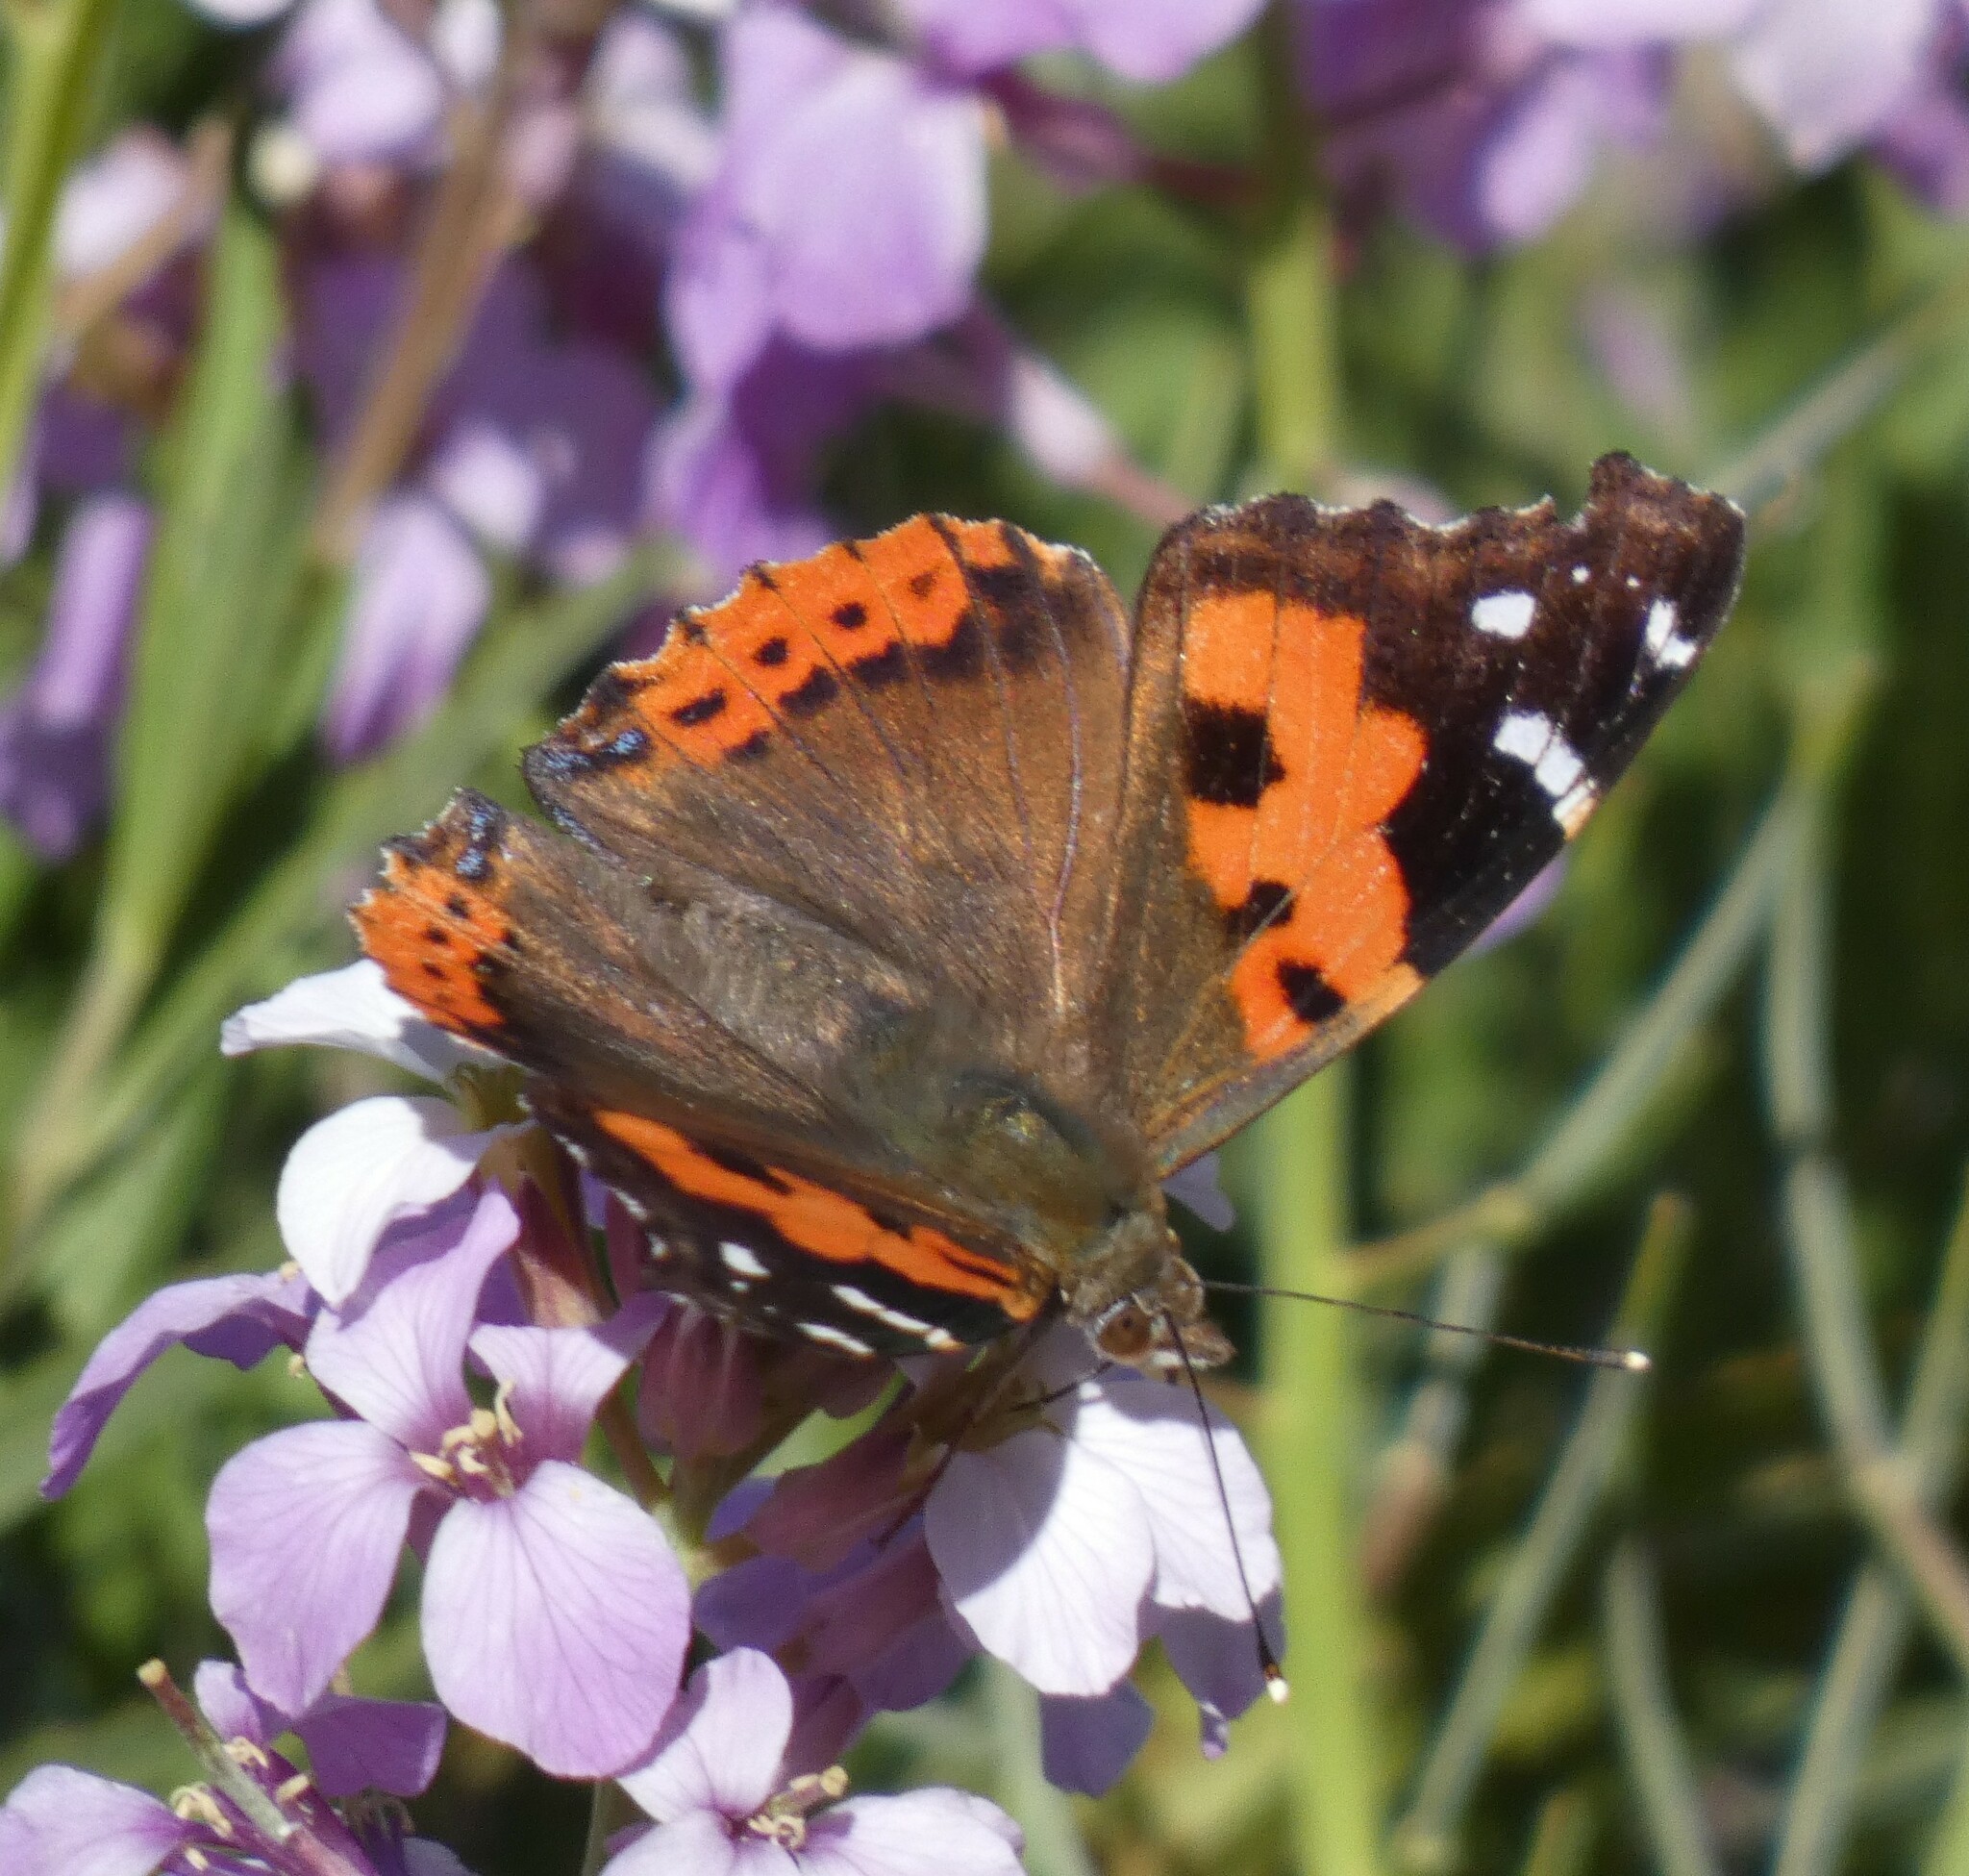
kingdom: Animalia
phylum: Arthropoda
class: Insecta
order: Lepidoptera
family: Nymphalidae
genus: Vanessa
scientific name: Vanessa vulcania
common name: Canary red admiral
